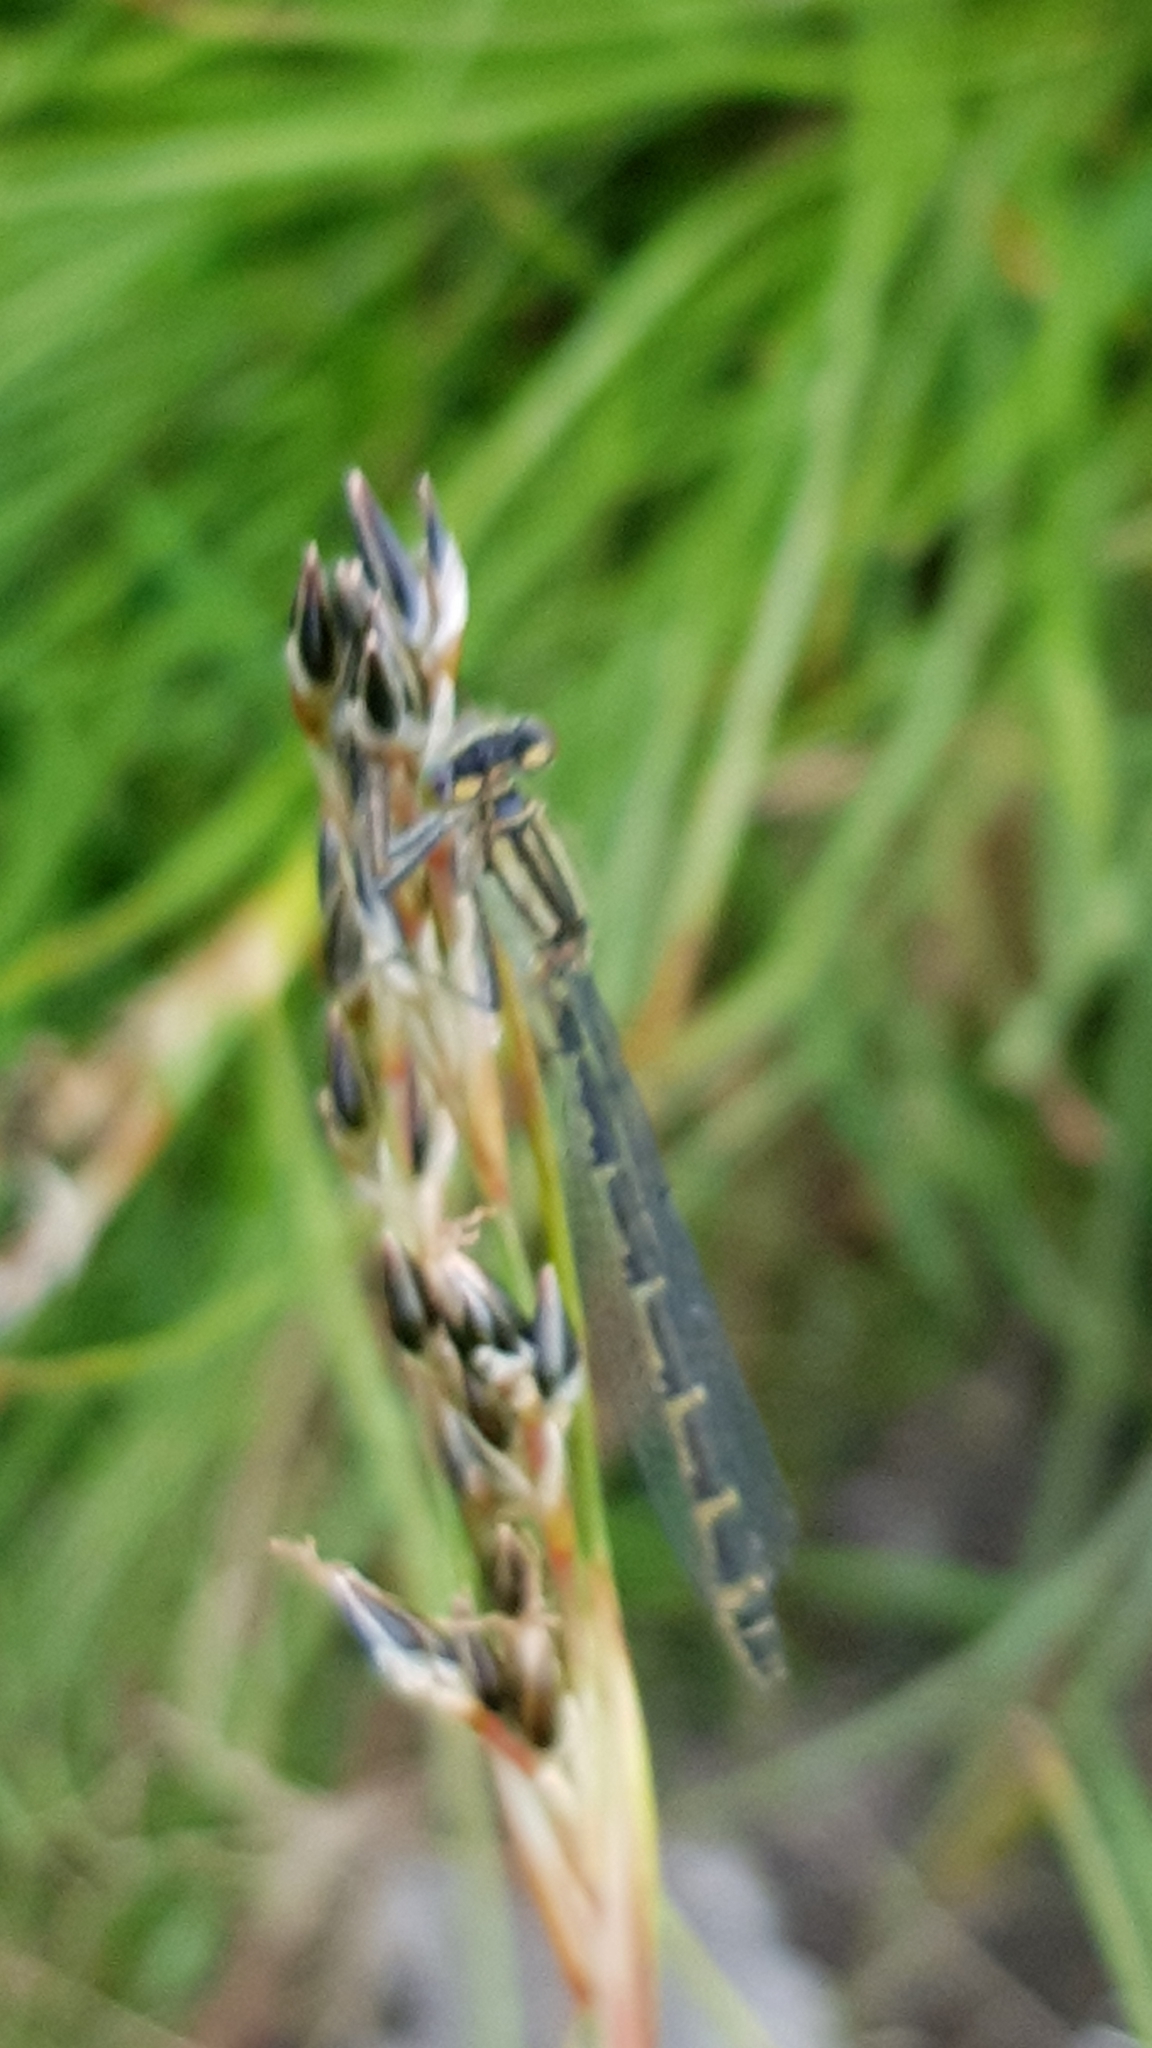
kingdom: Animalia
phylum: Arthropoda
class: Insecta
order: Odonata
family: Coenagrionidae
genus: Enallagma
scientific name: Enallagma cyathigerum
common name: Common blue damselfly
